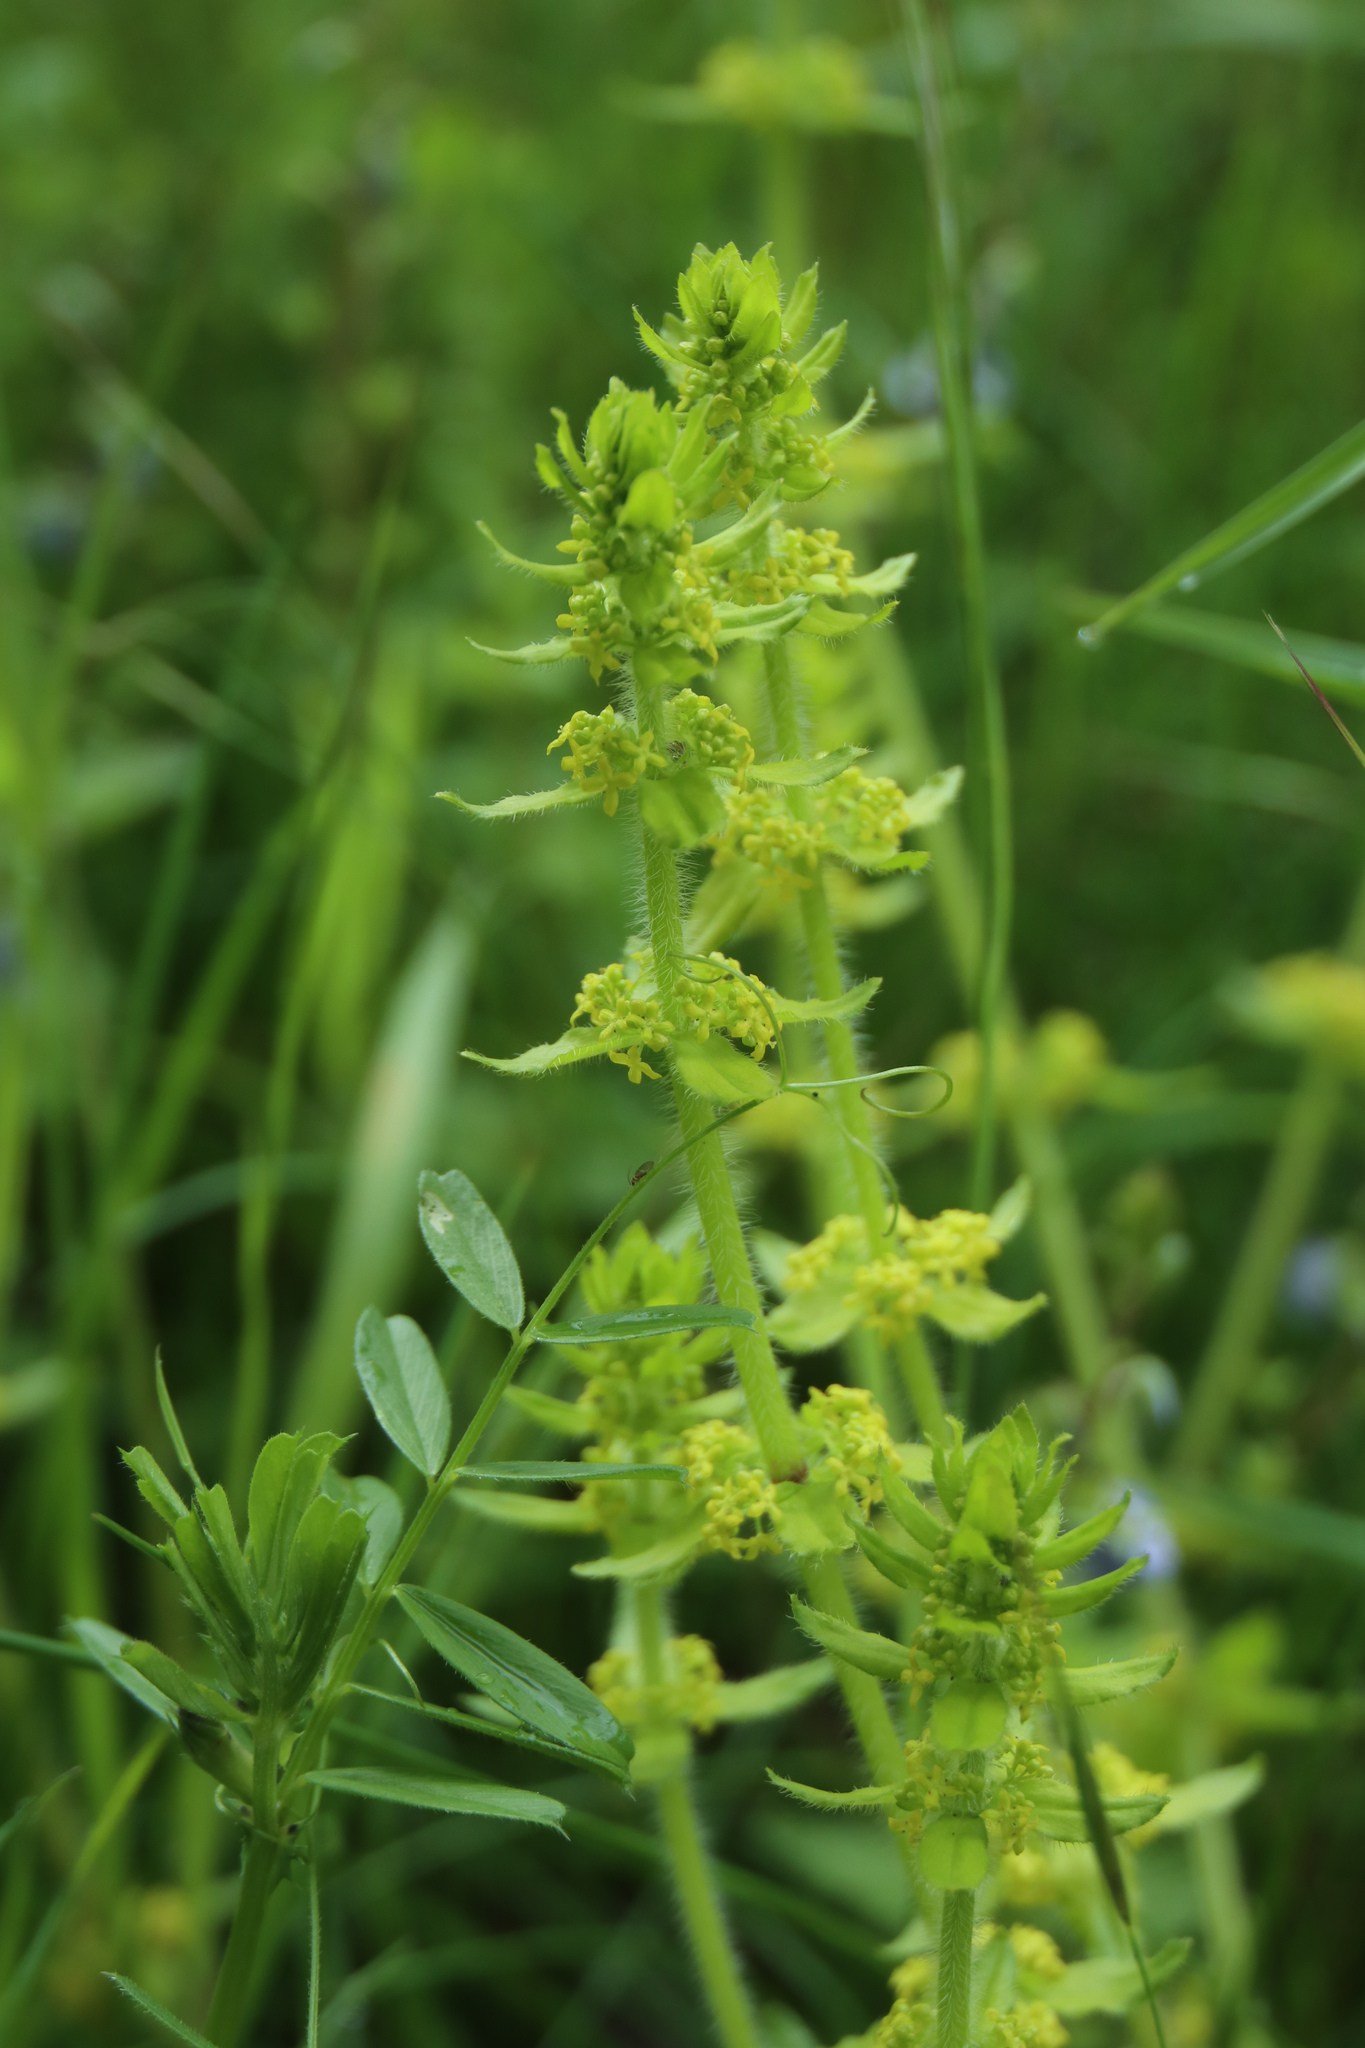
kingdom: Plantae
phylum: Tracheophyta
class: Magnoliopsida
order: Gentianales
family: Rubiaceae
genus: Cruciata
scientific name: Cruciata laevipes
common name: Crosswort
